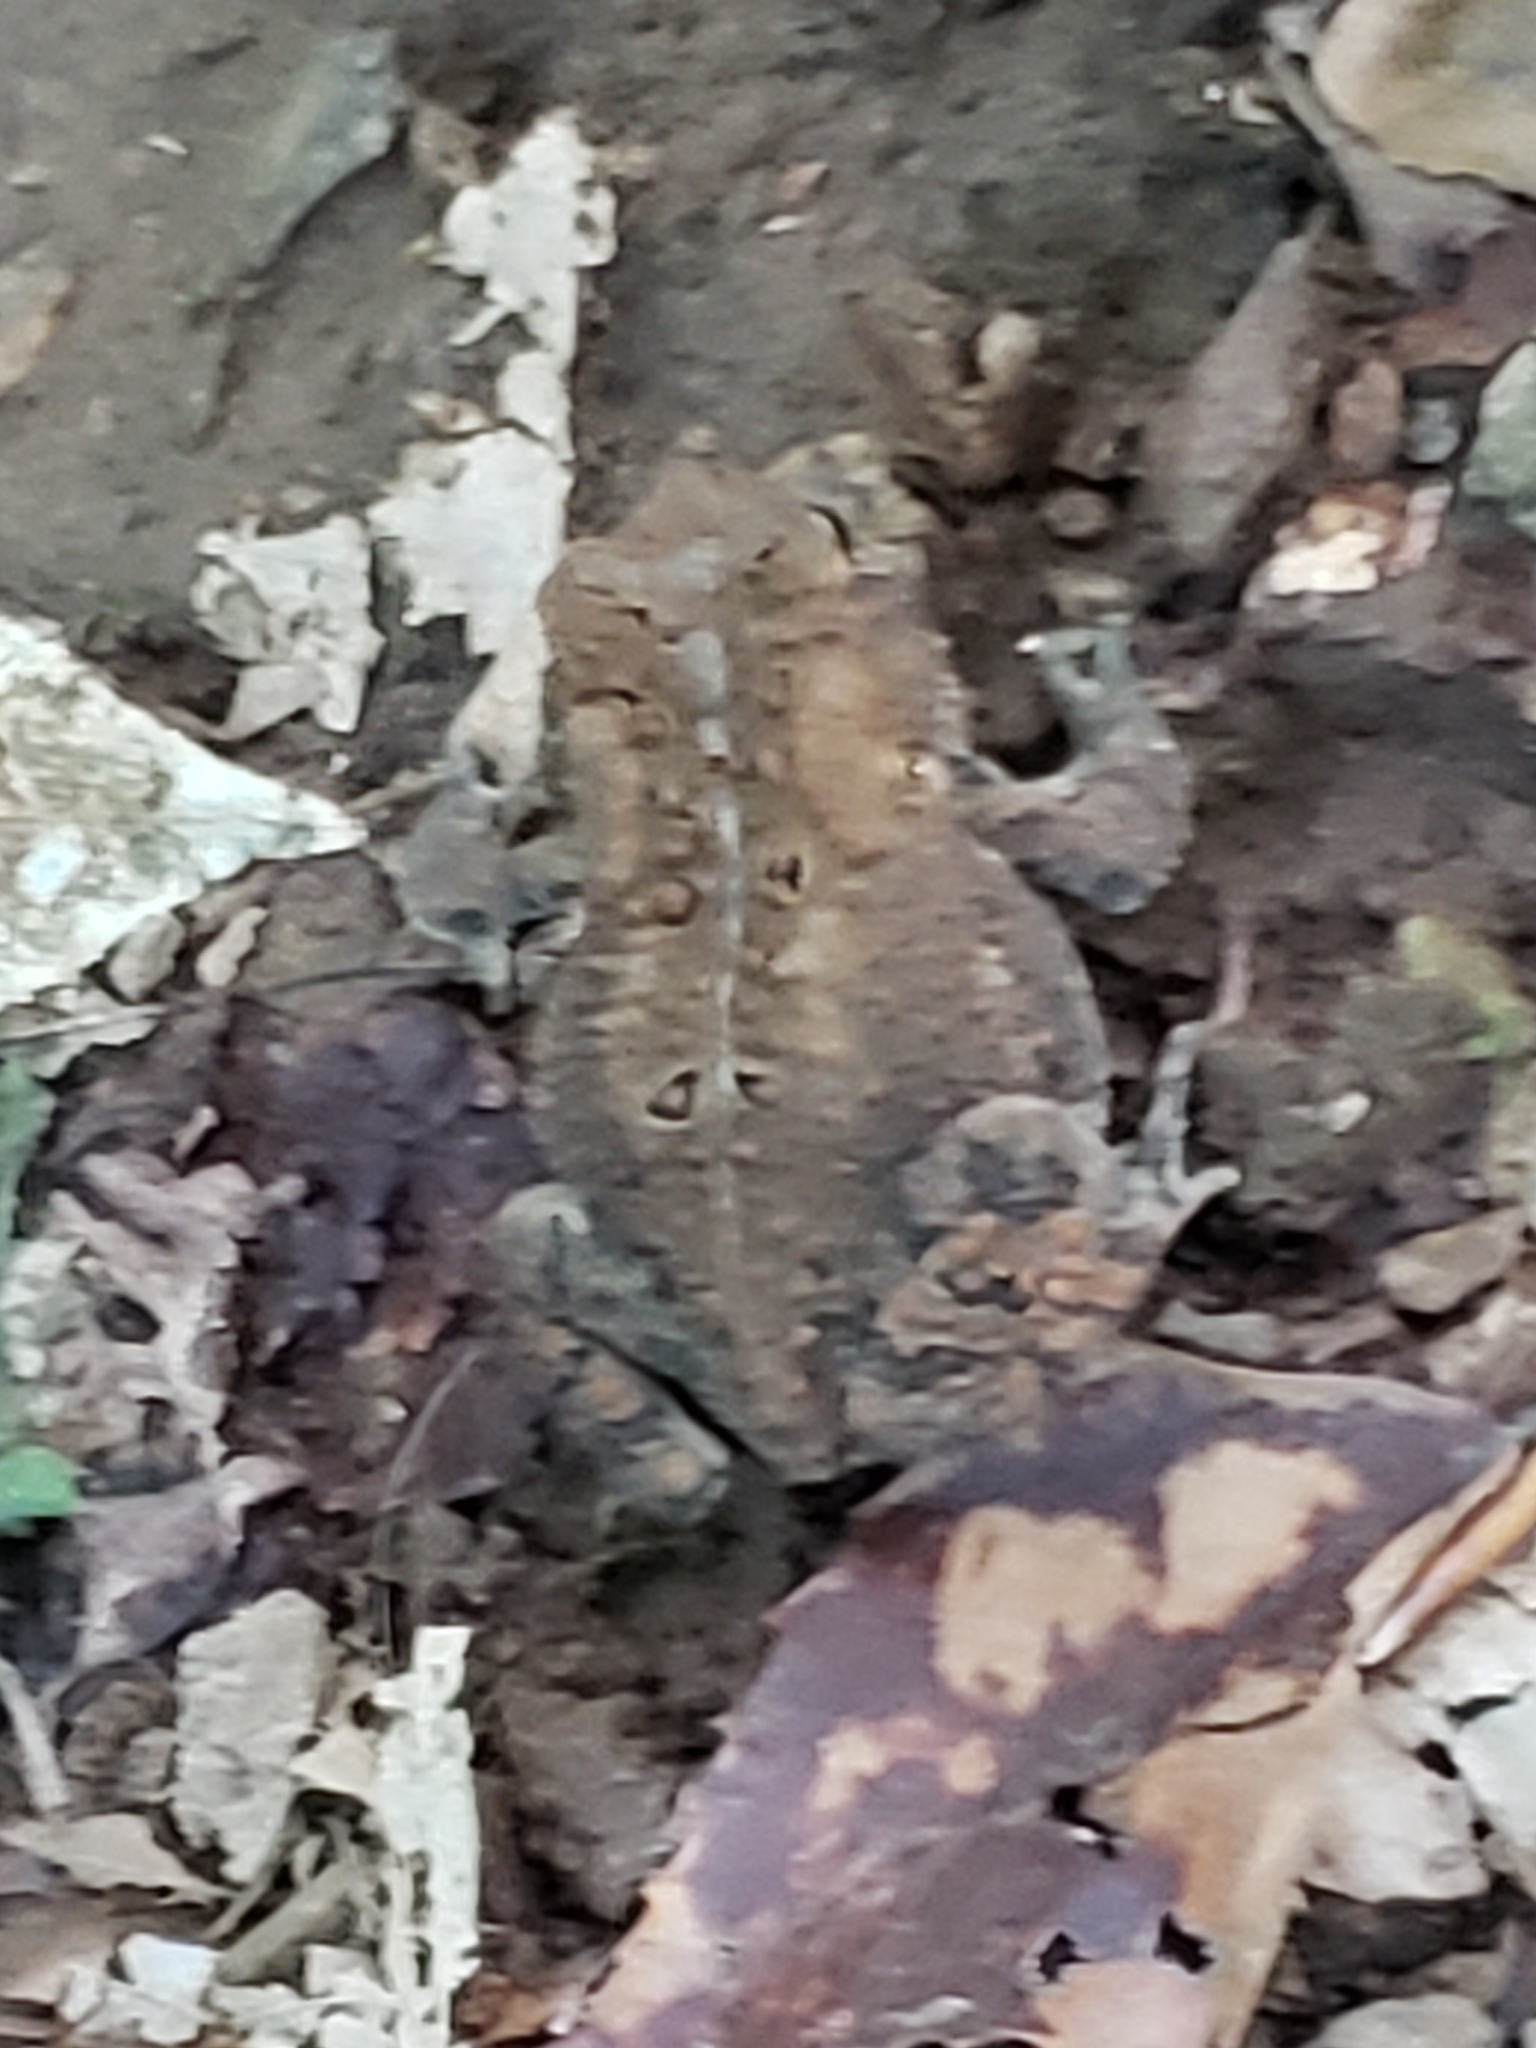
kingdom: Animalia
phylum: Chordata
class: Amphibia
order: Anura
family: Bufonidae
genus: Anaxyrus
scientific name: Anaxyrus americanus
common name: American toad
